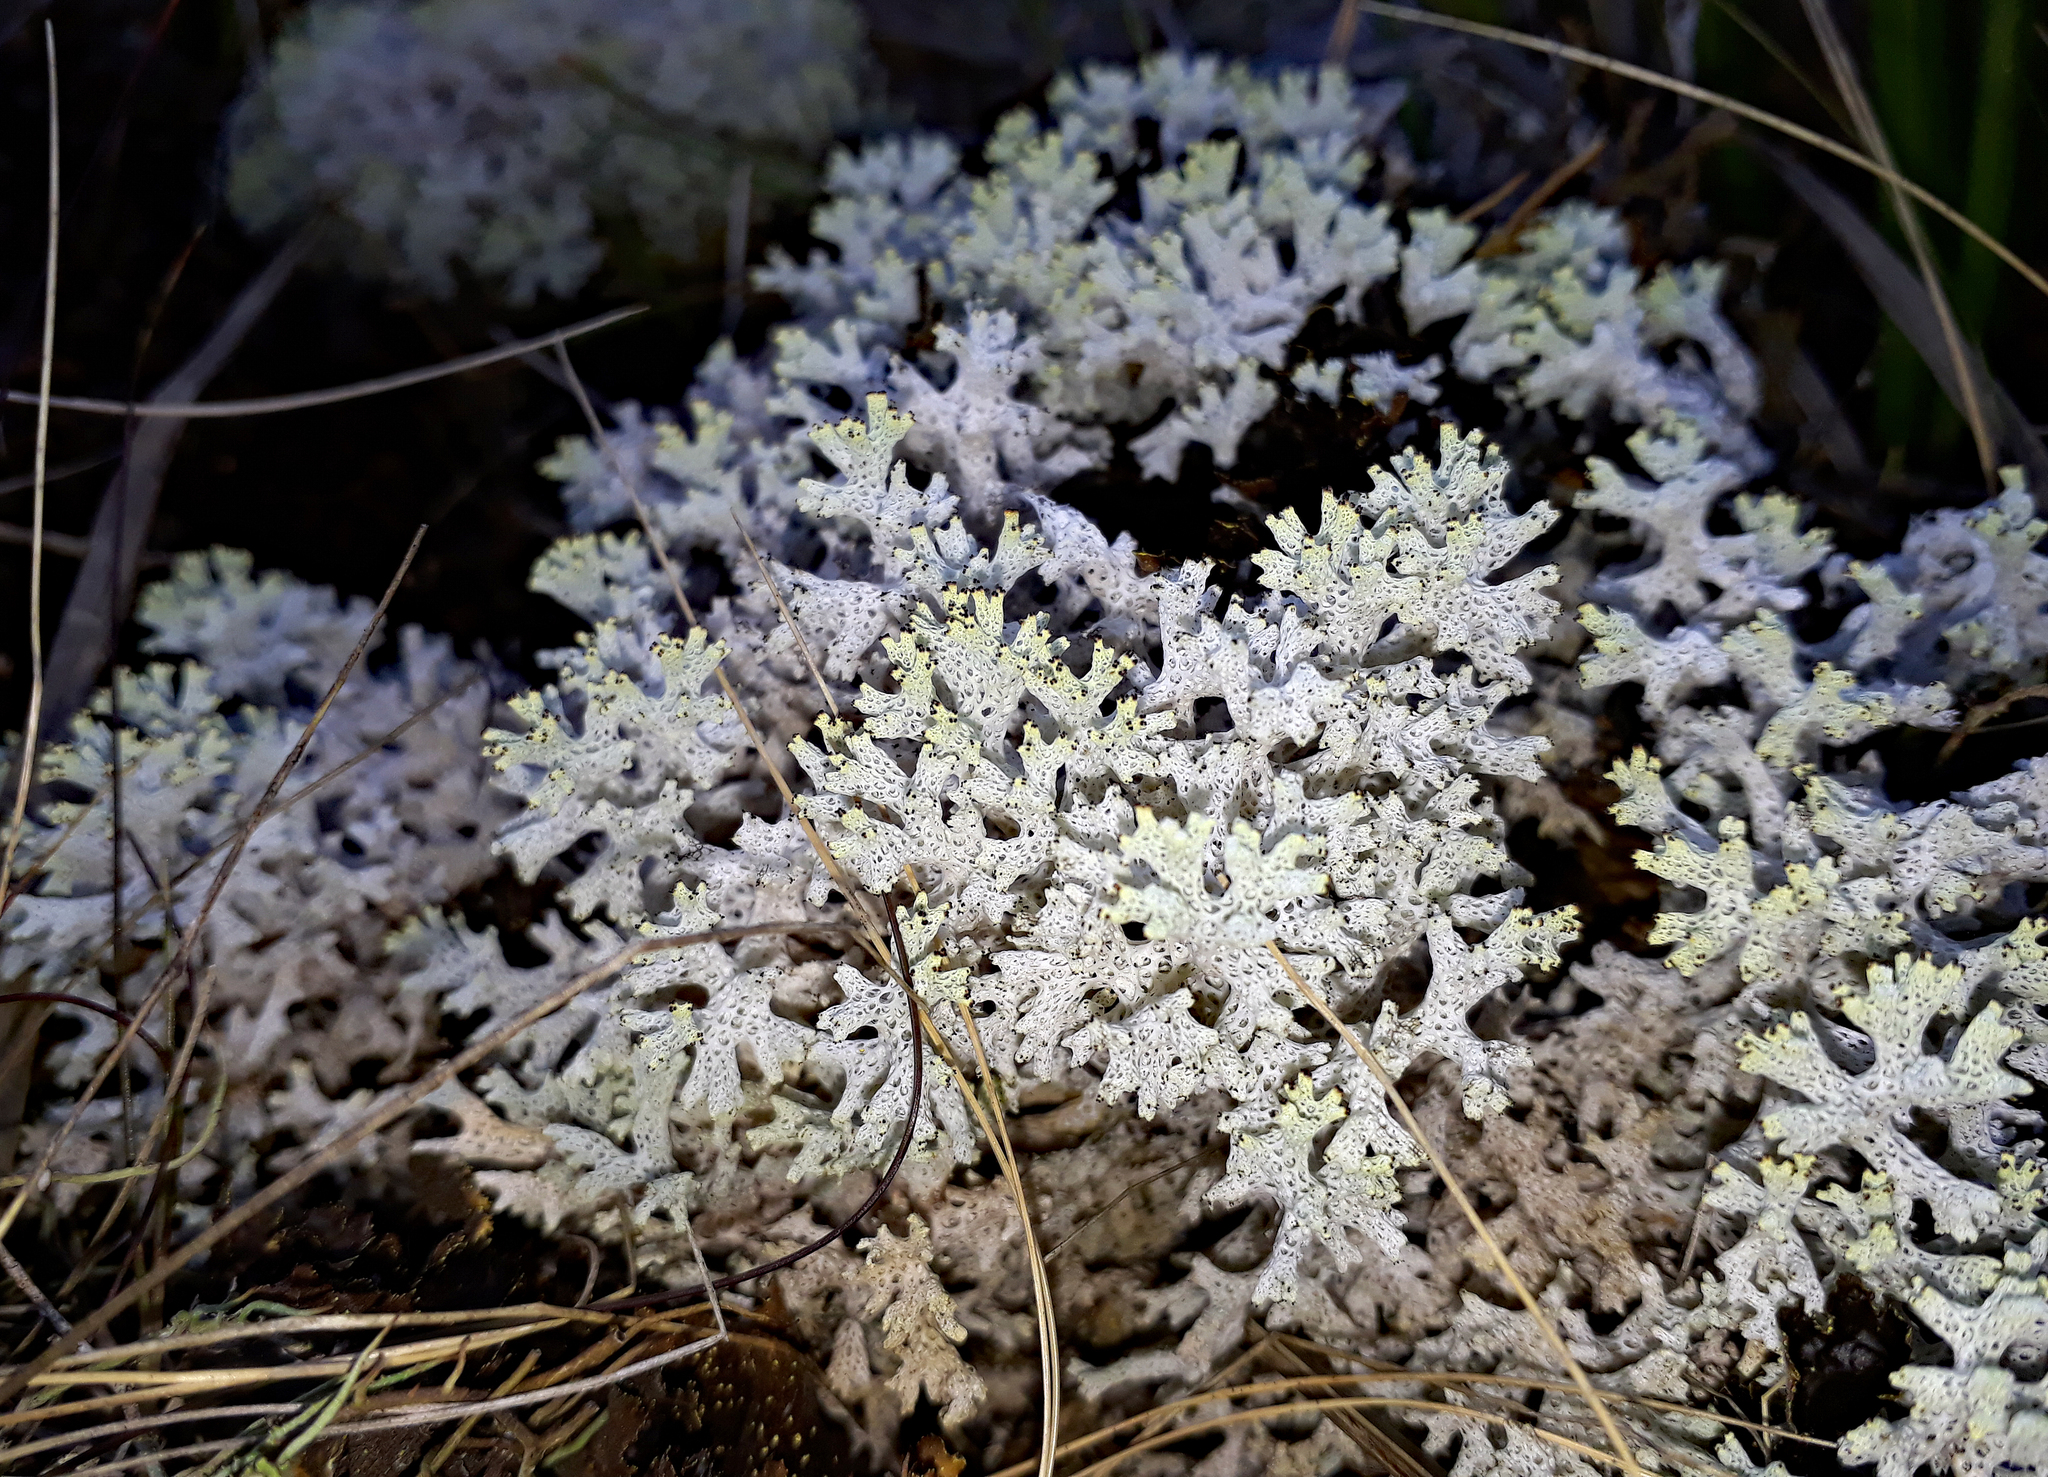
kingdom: Fungi
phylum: Ascomycota
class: Lecanoromycetes
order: Lecanorales
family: Cladoniaceae
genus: Pulchrocladia
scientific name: Pulchrocladia retipora
